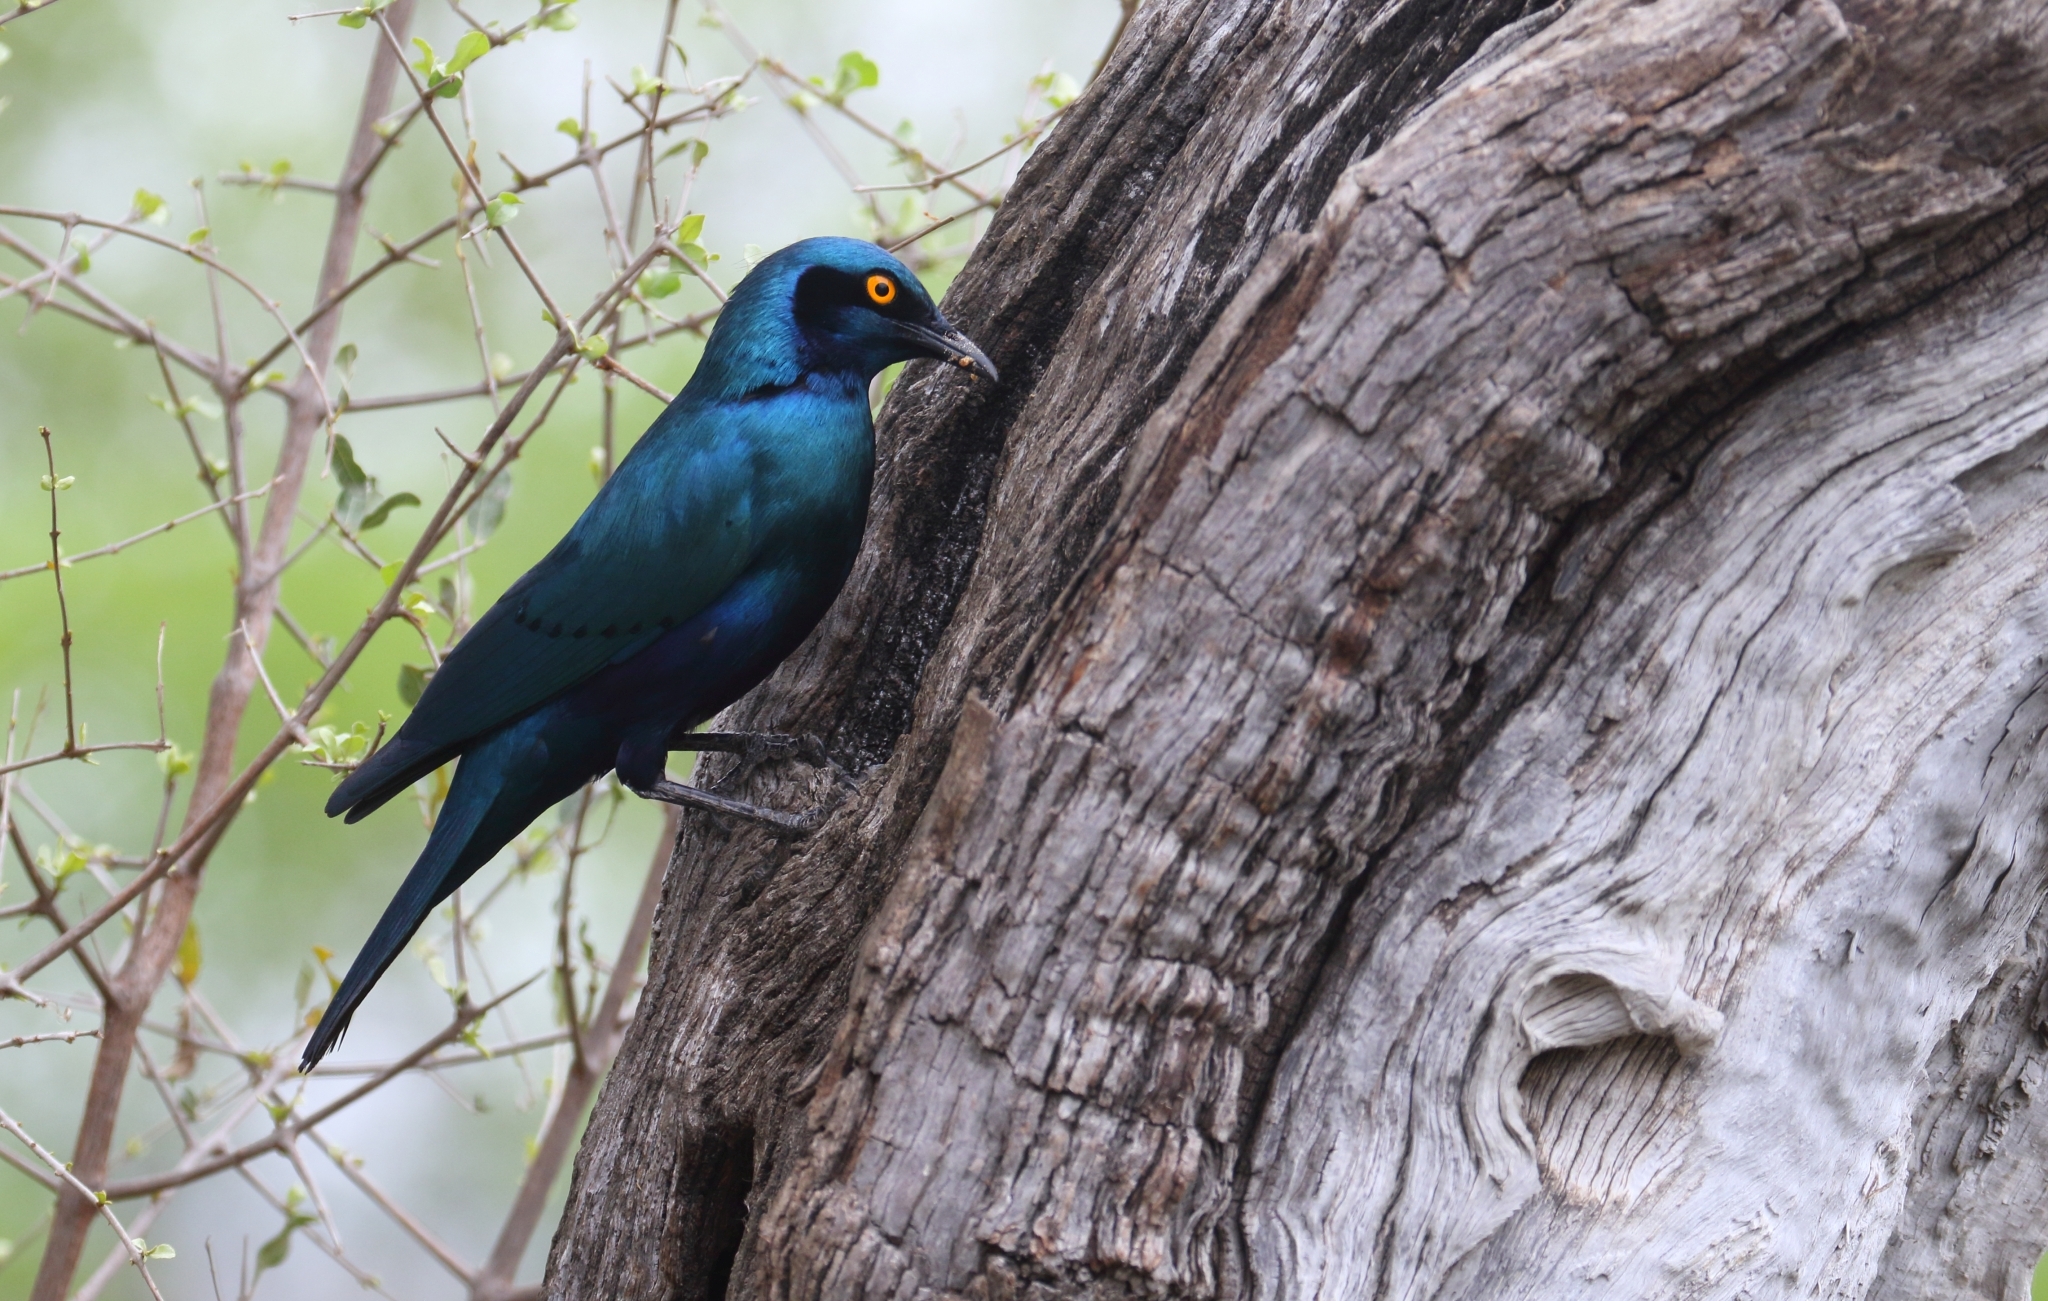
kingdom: Animalia
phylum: Chordata
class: Aves
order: Passeriformes
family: Sturnidae
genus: Lamprotornis
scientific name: Lamprotornis chalybaeus
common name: Greater blue-eared starling
